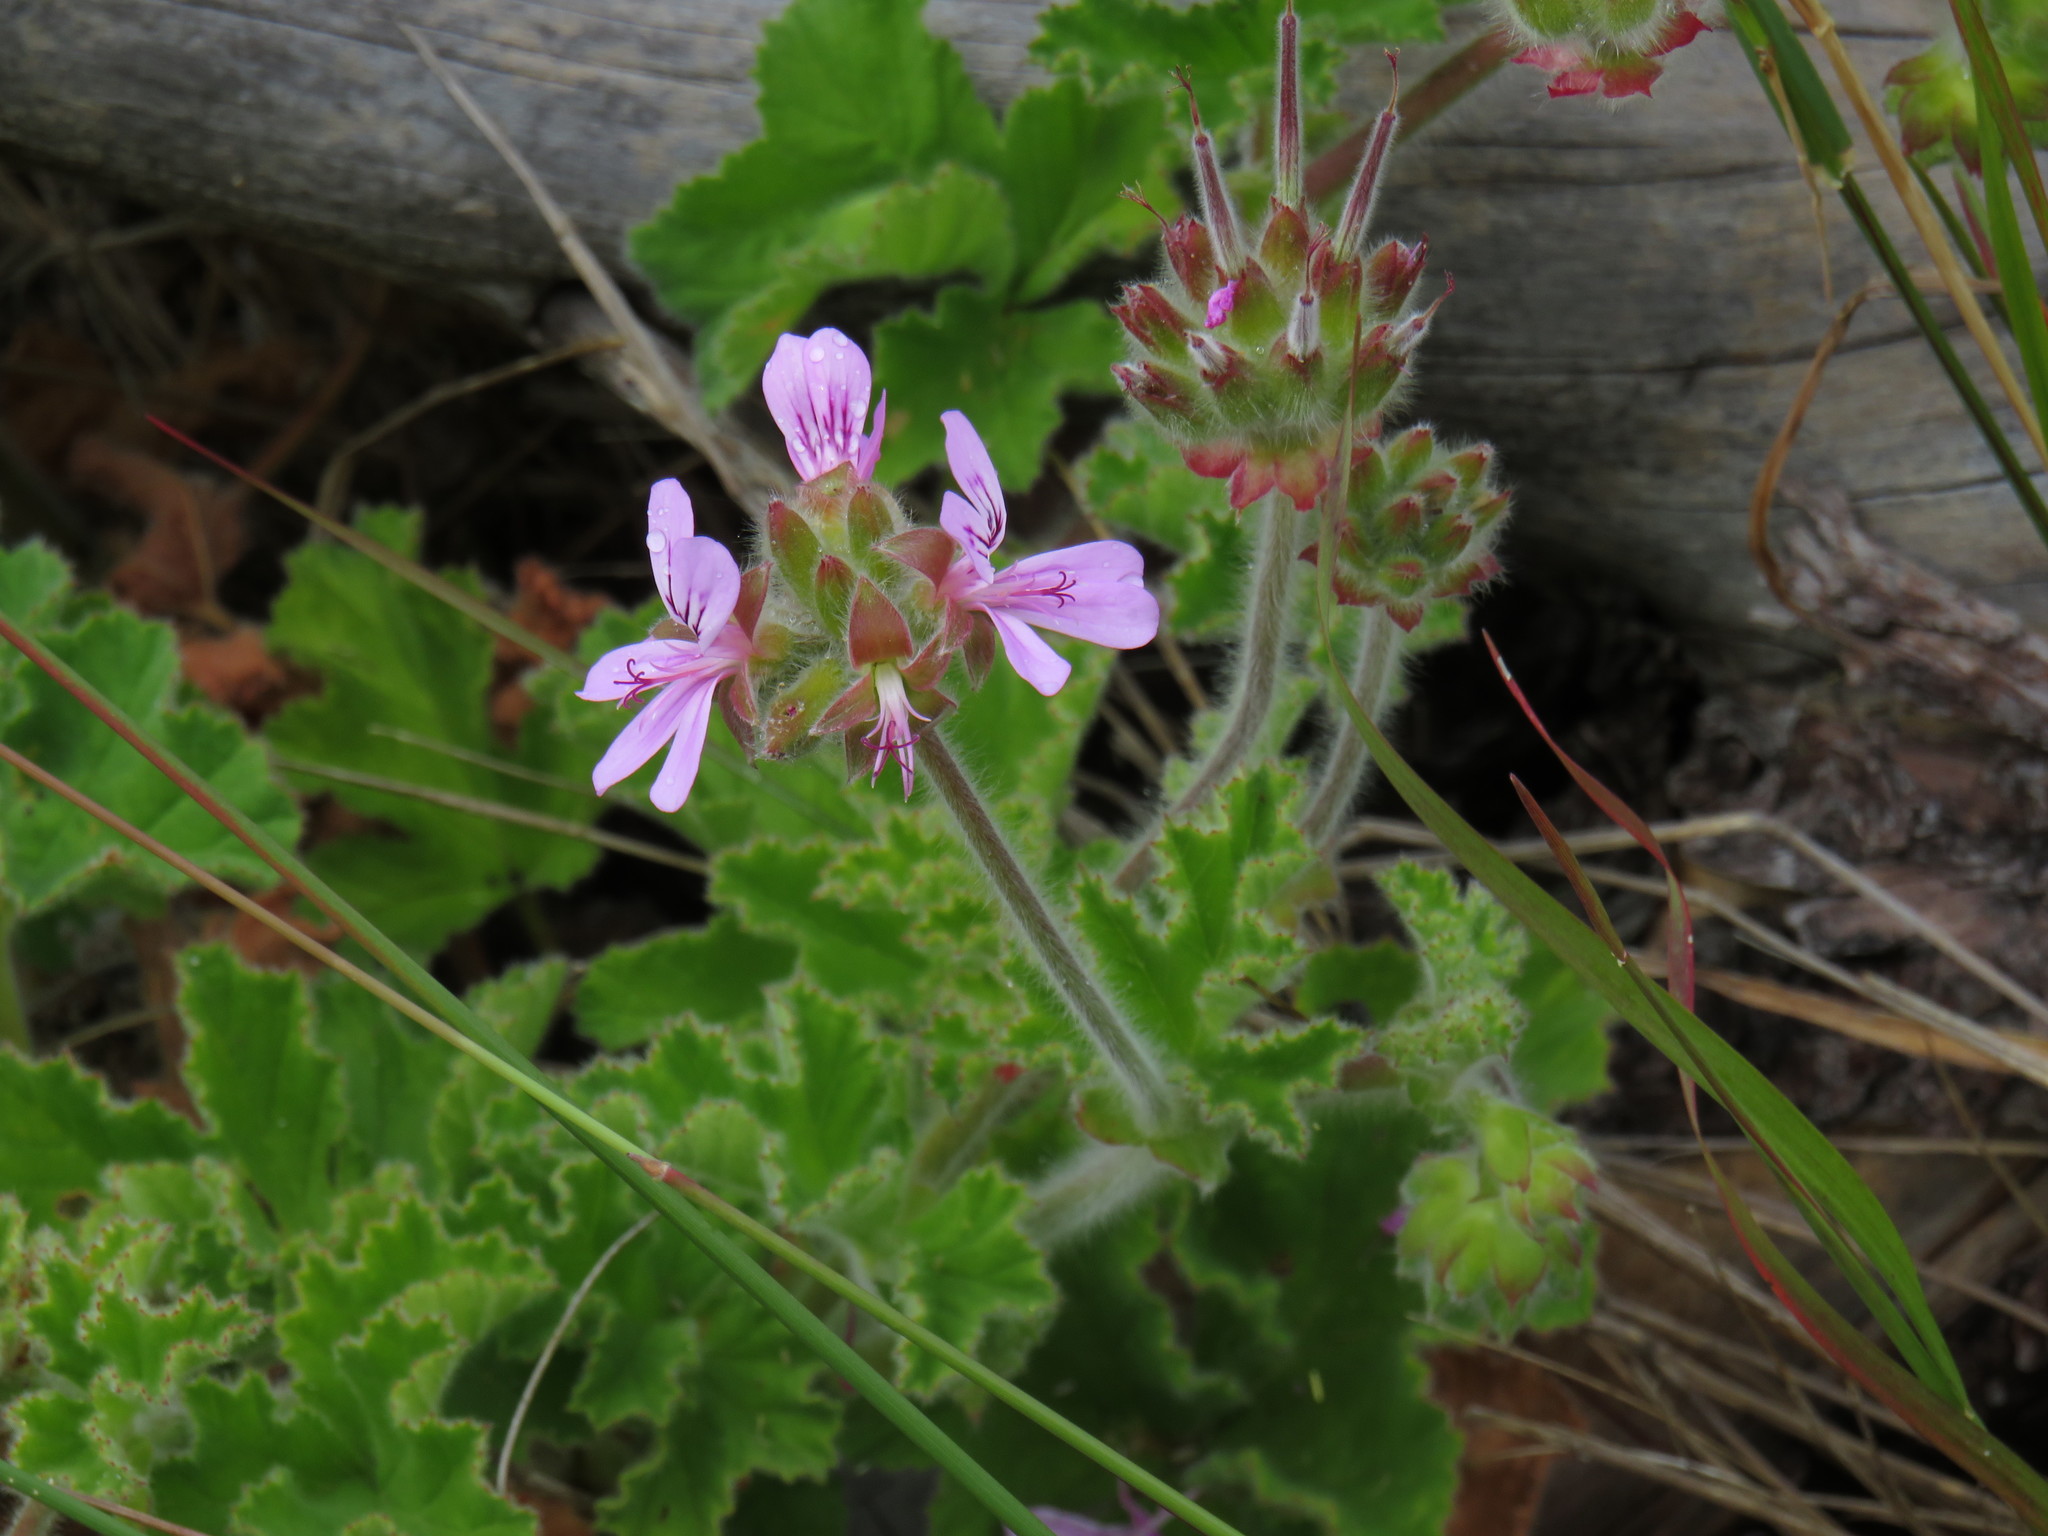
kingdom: Plantae
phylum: Tracheophyta
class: Magnoliopsida
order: Geraniales
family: Geraniaceae
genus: Pelargonium
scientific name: Pelargonium capitatum
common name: Rose scented geranium
